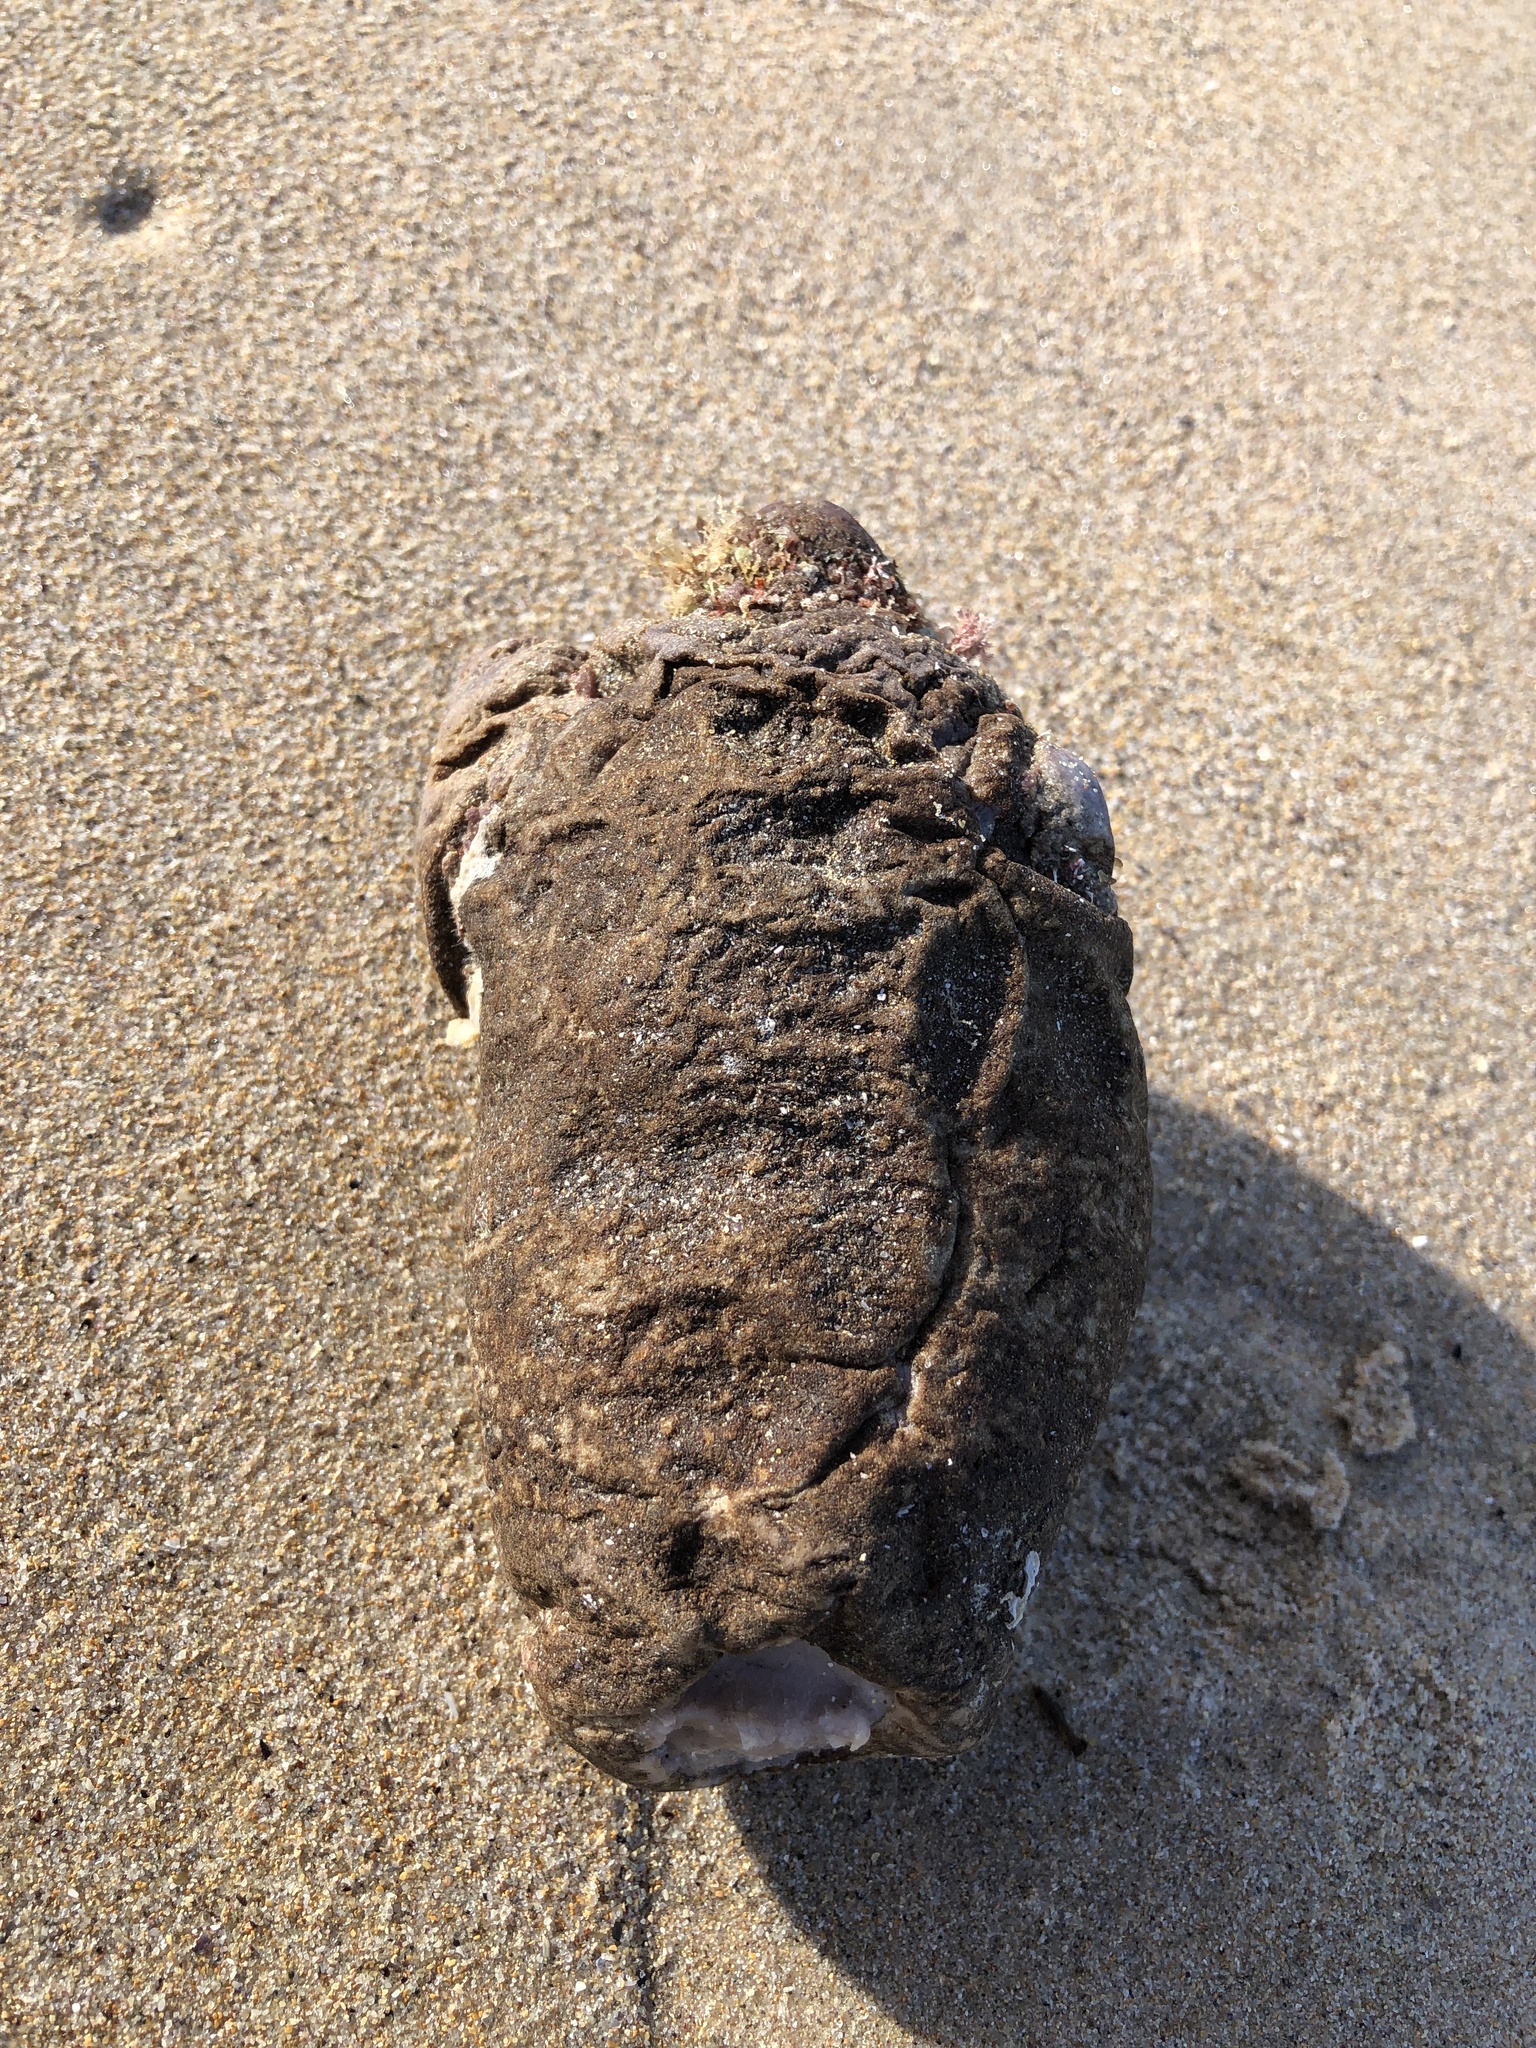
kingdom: Animalia
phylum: Chordata
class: Ascidiacea
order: Stolidobranchia
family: Pyuridae
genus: Pyura
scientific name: Pyura praeputialis
